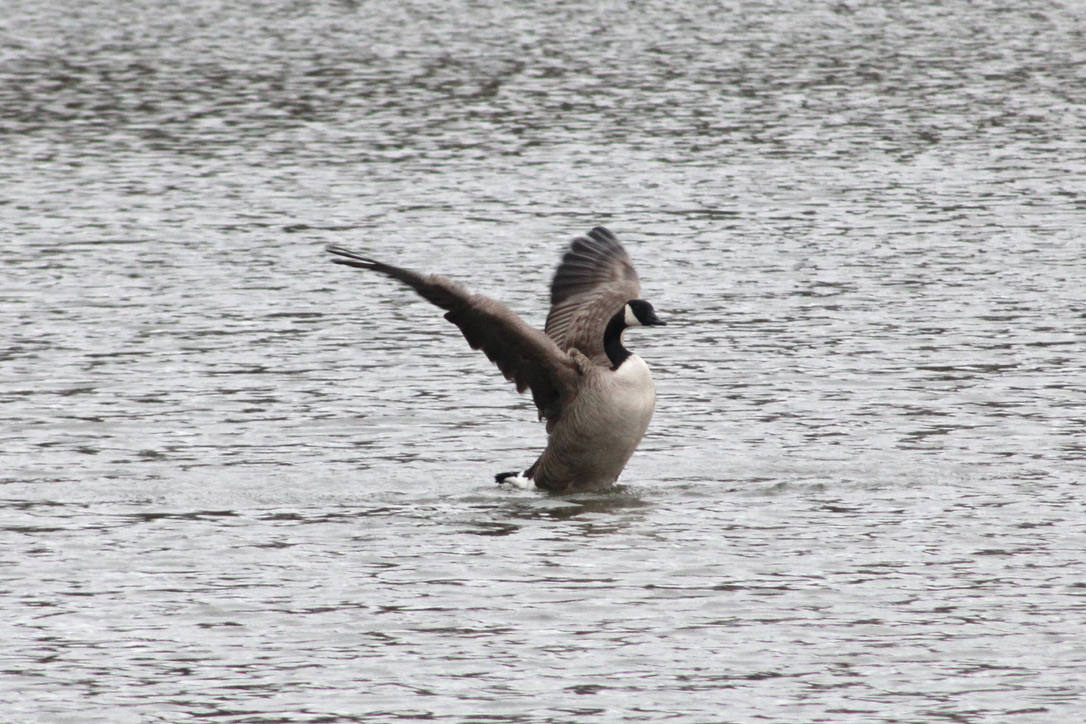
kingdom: Animalia
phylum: Chordata
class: Aves
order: Anseriformes
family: Anatidae
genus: Branta
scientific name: Branta canadensis
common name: Canada goose
